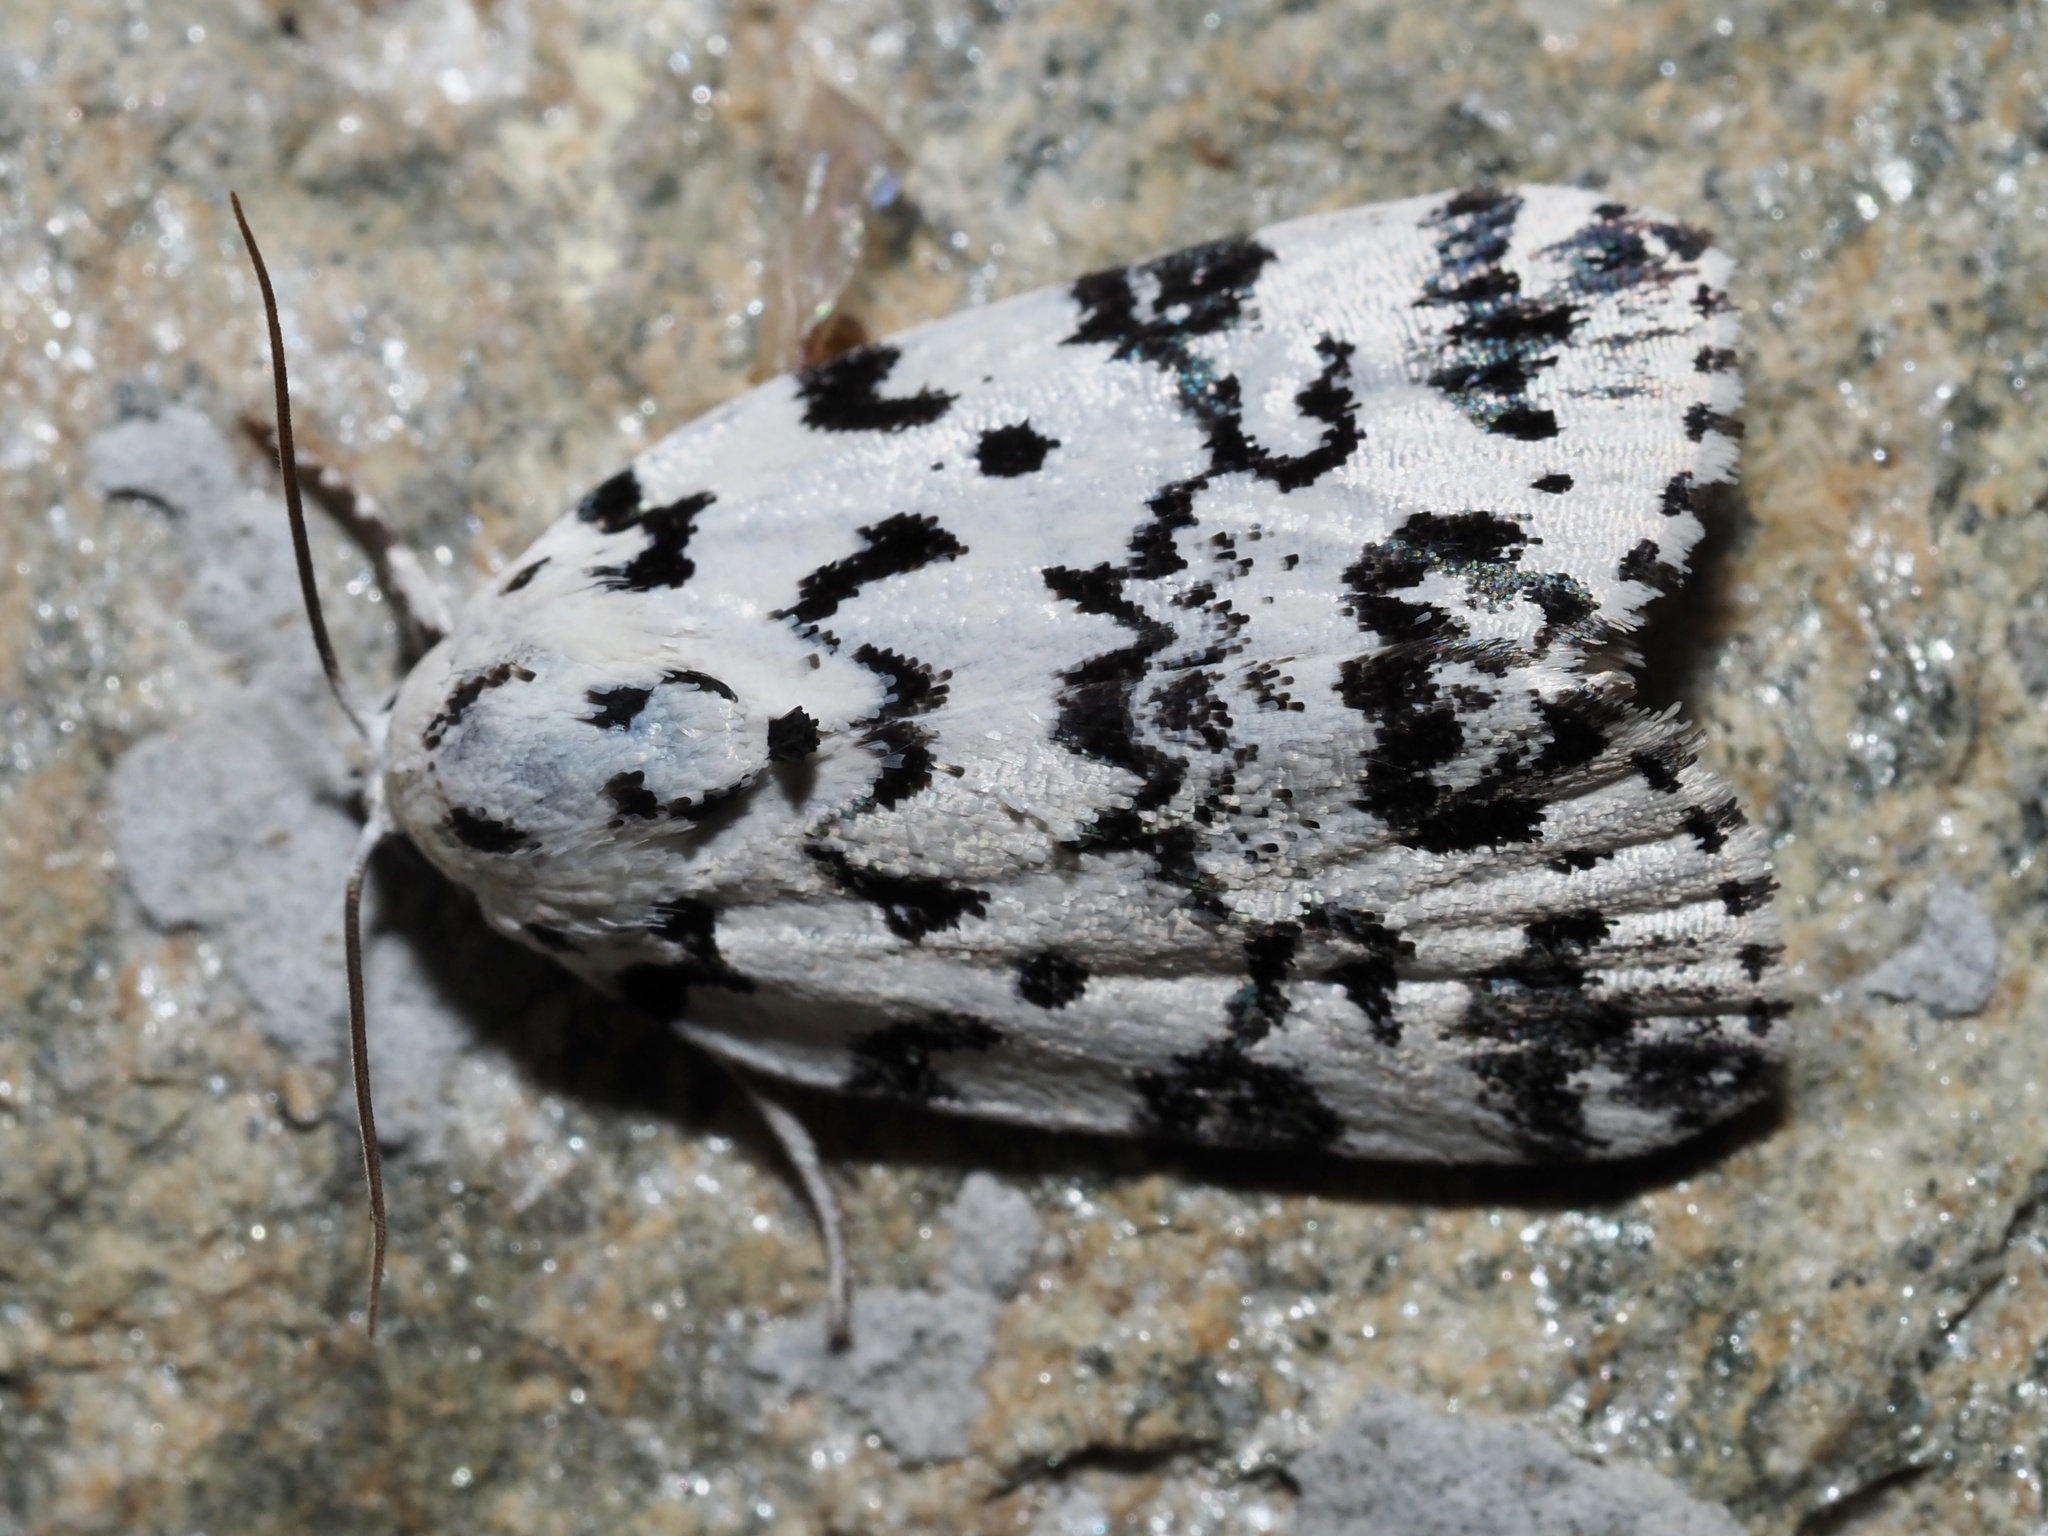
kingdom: Animalia
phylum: Arthropoda
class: Insecta
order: Lepidoptera
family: Noctuidae
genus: Polygrammate
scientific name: Polygrammate hebraeicum
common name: Hebrew moth
